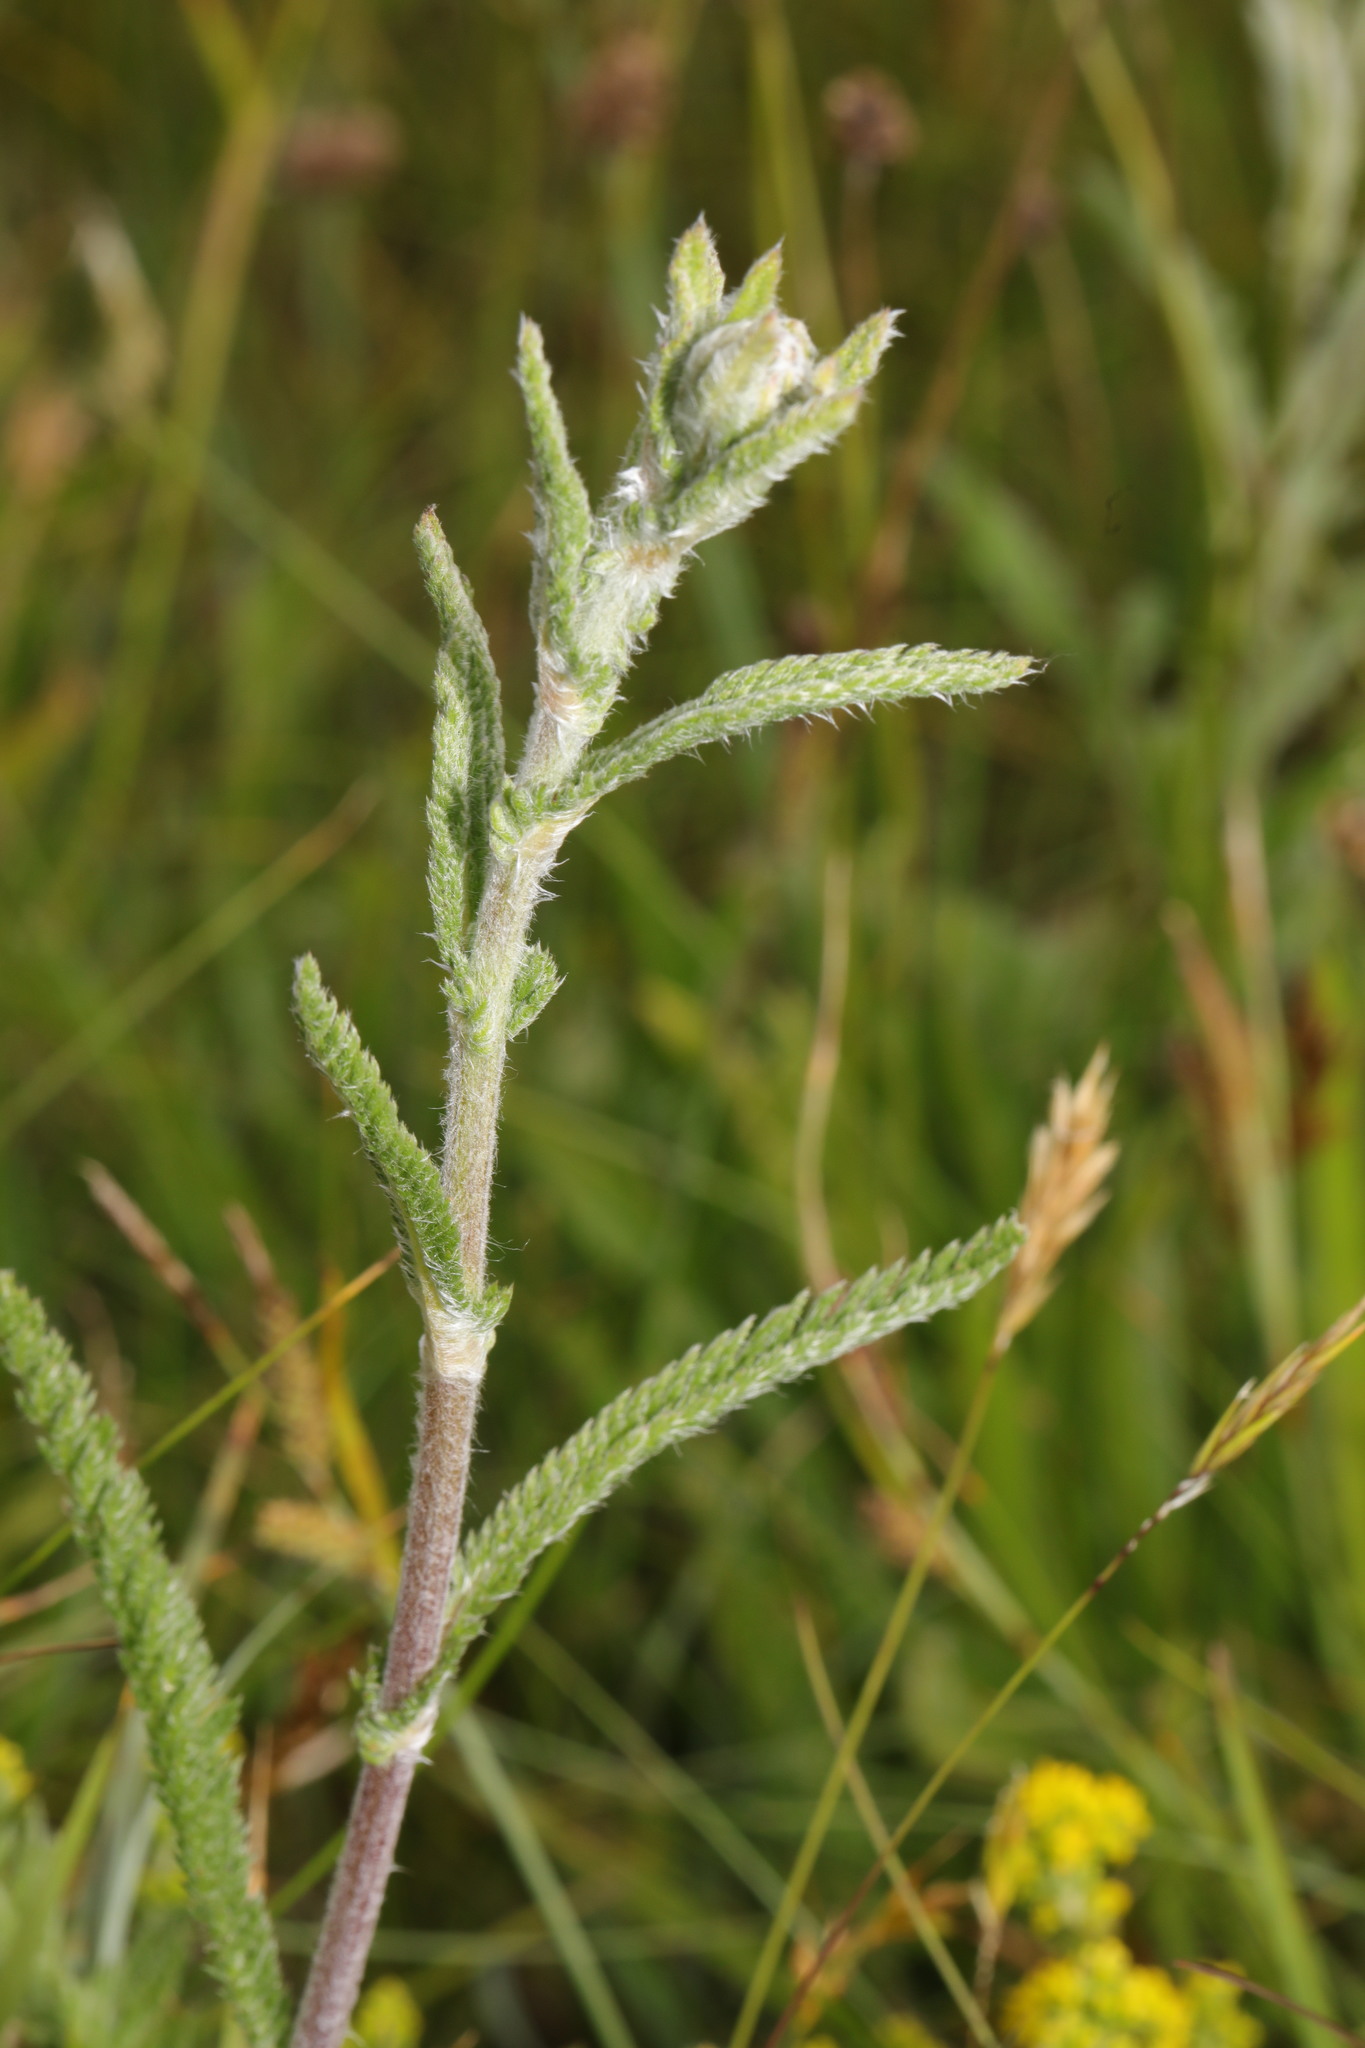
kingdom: Plantae
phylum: Tracheophyta
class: Magnoliopsida
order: Asterales
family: Asteraceae
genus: Achillea
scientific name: Achillea millefolium
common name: Yarrow
